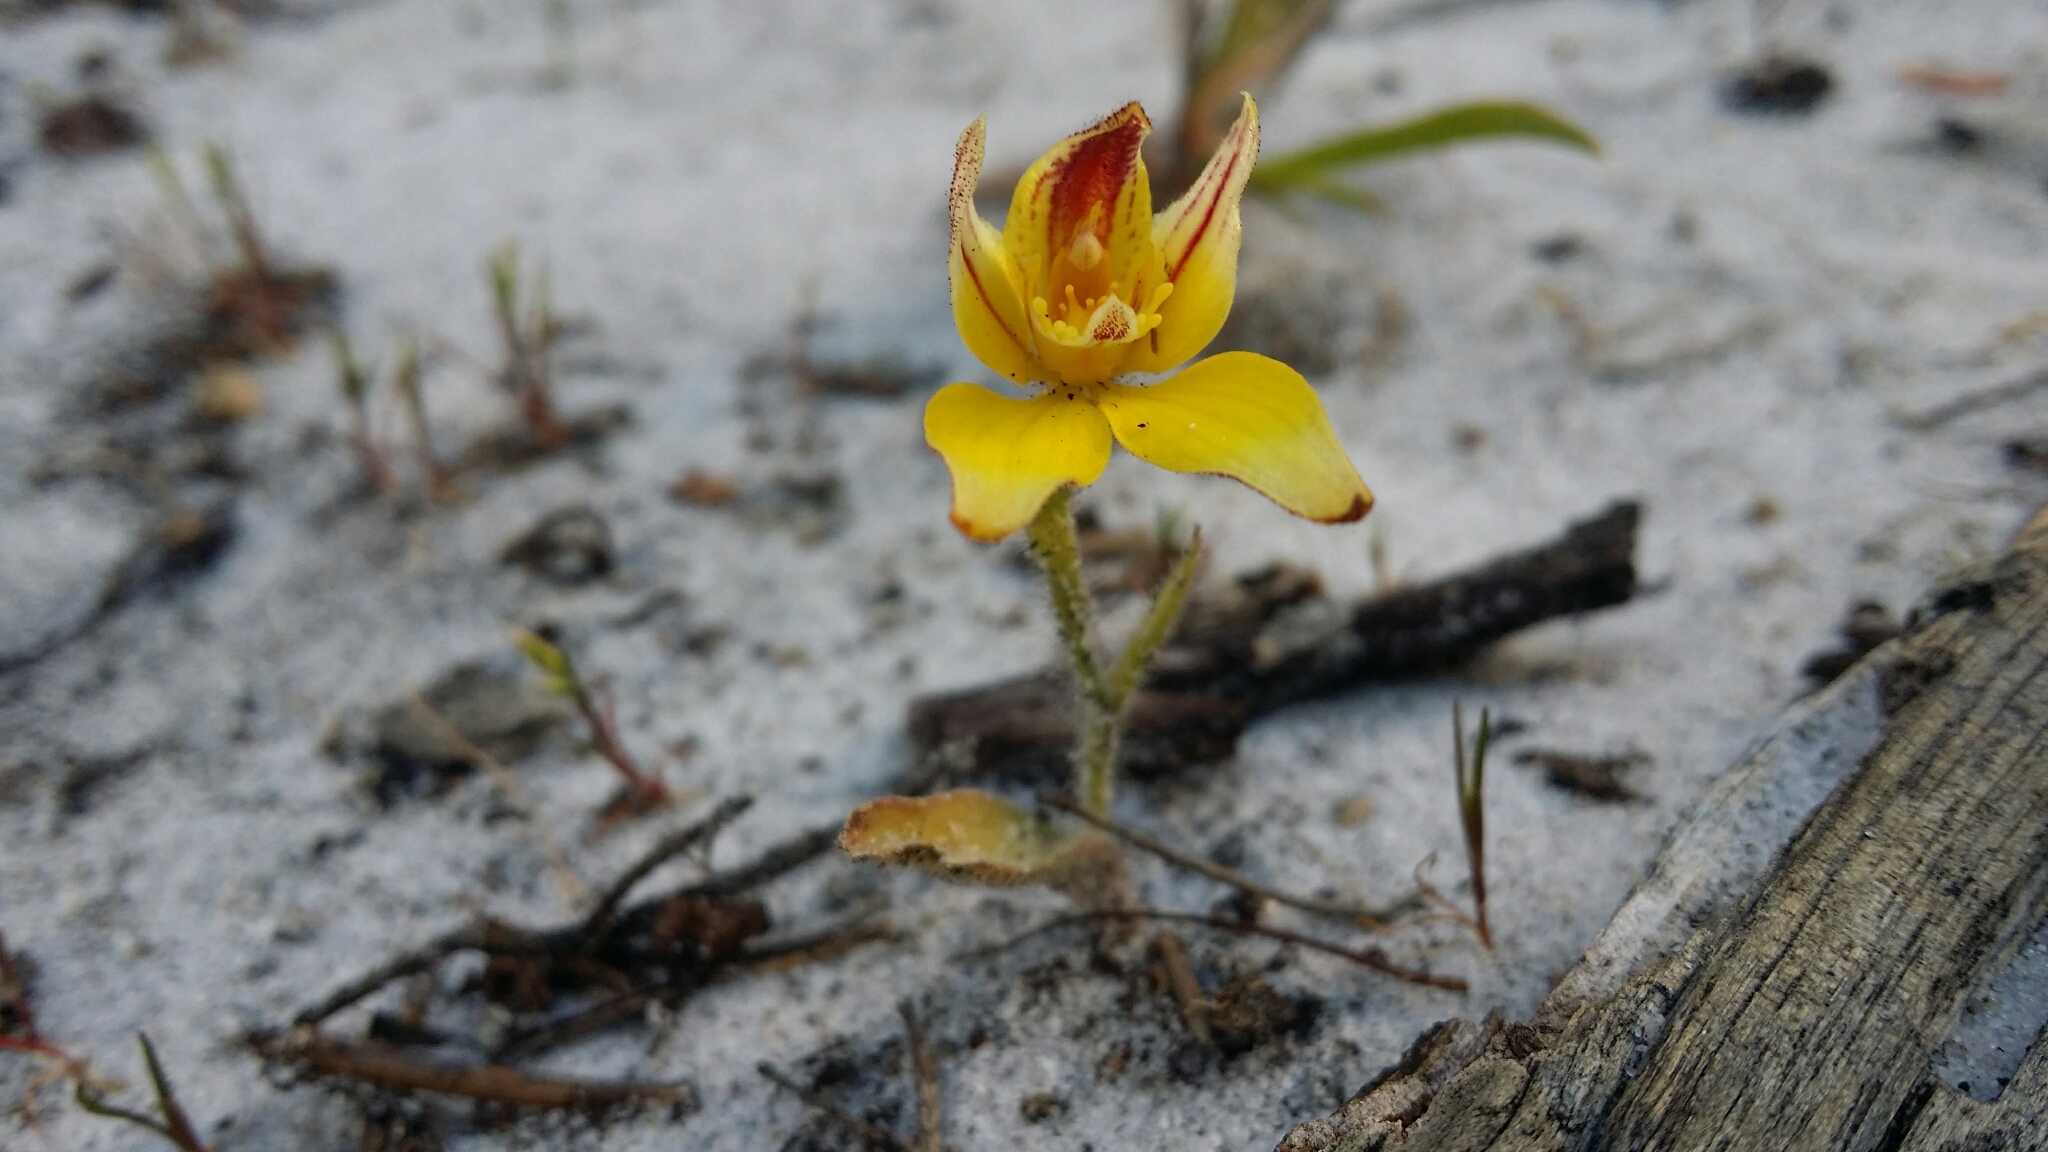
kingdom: Plantae
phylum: Tracheophyta
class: Liliopsida
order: Asparagales
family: Orchidaceae
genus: Caladenia
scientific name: Caladenia flava
